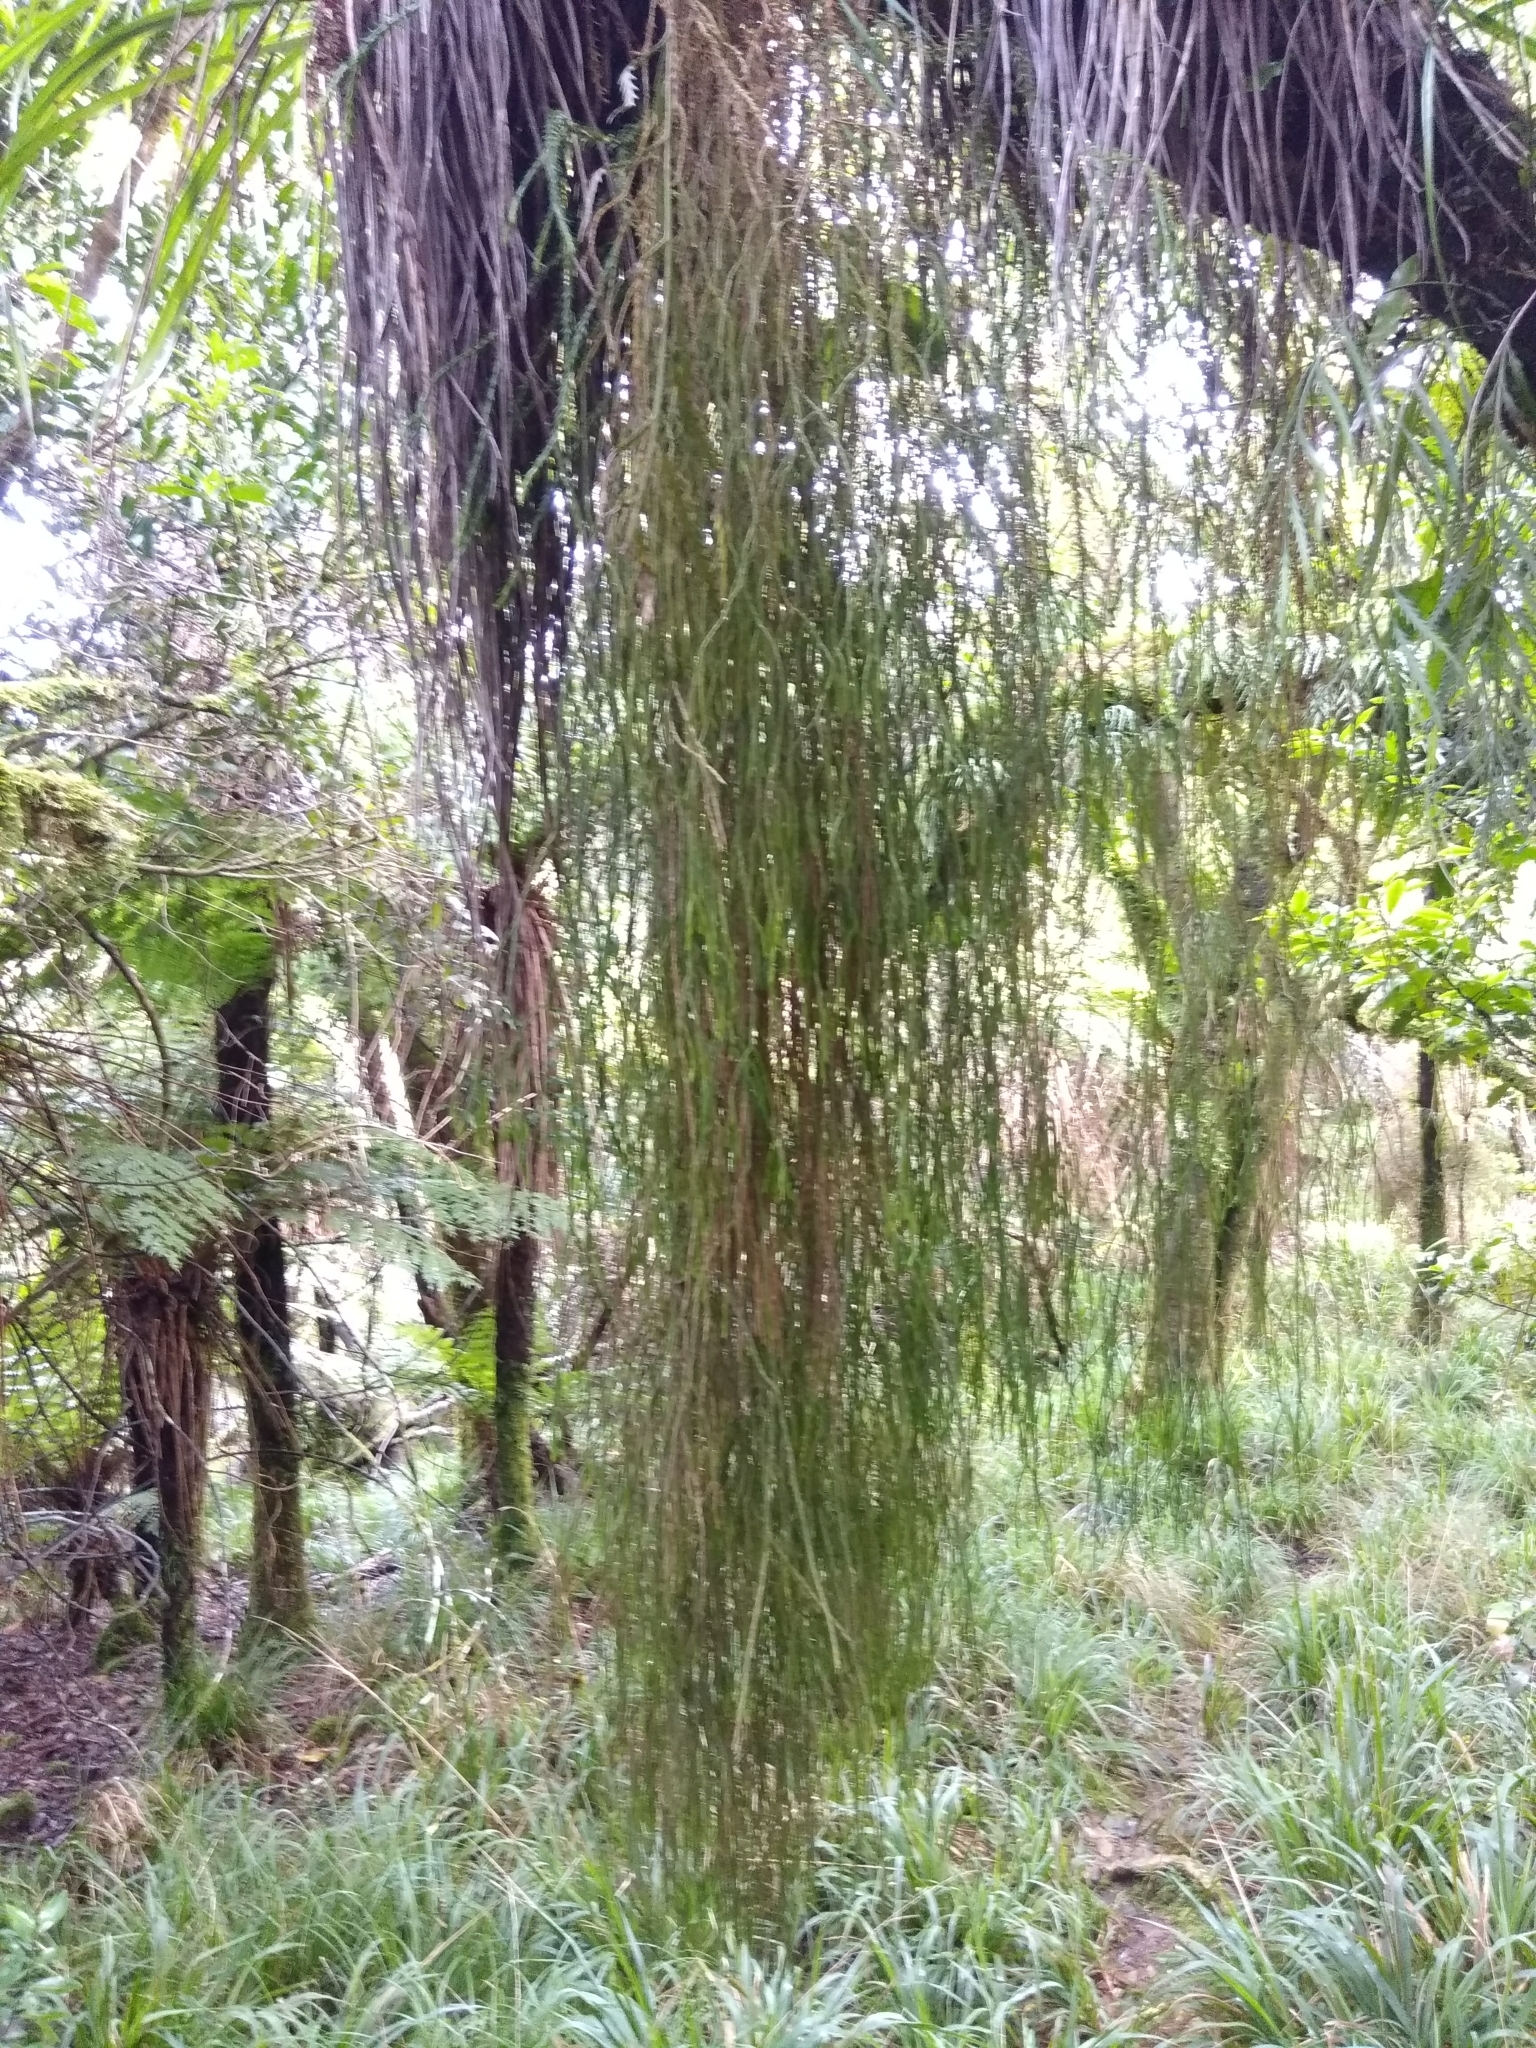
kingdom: Plantae
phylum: Tracheophyta
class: Lycopodiopsida
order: Lycopodiales
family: Lycopodiaceae
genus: Phlegmariurus
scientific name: Phlegmariurus varius
